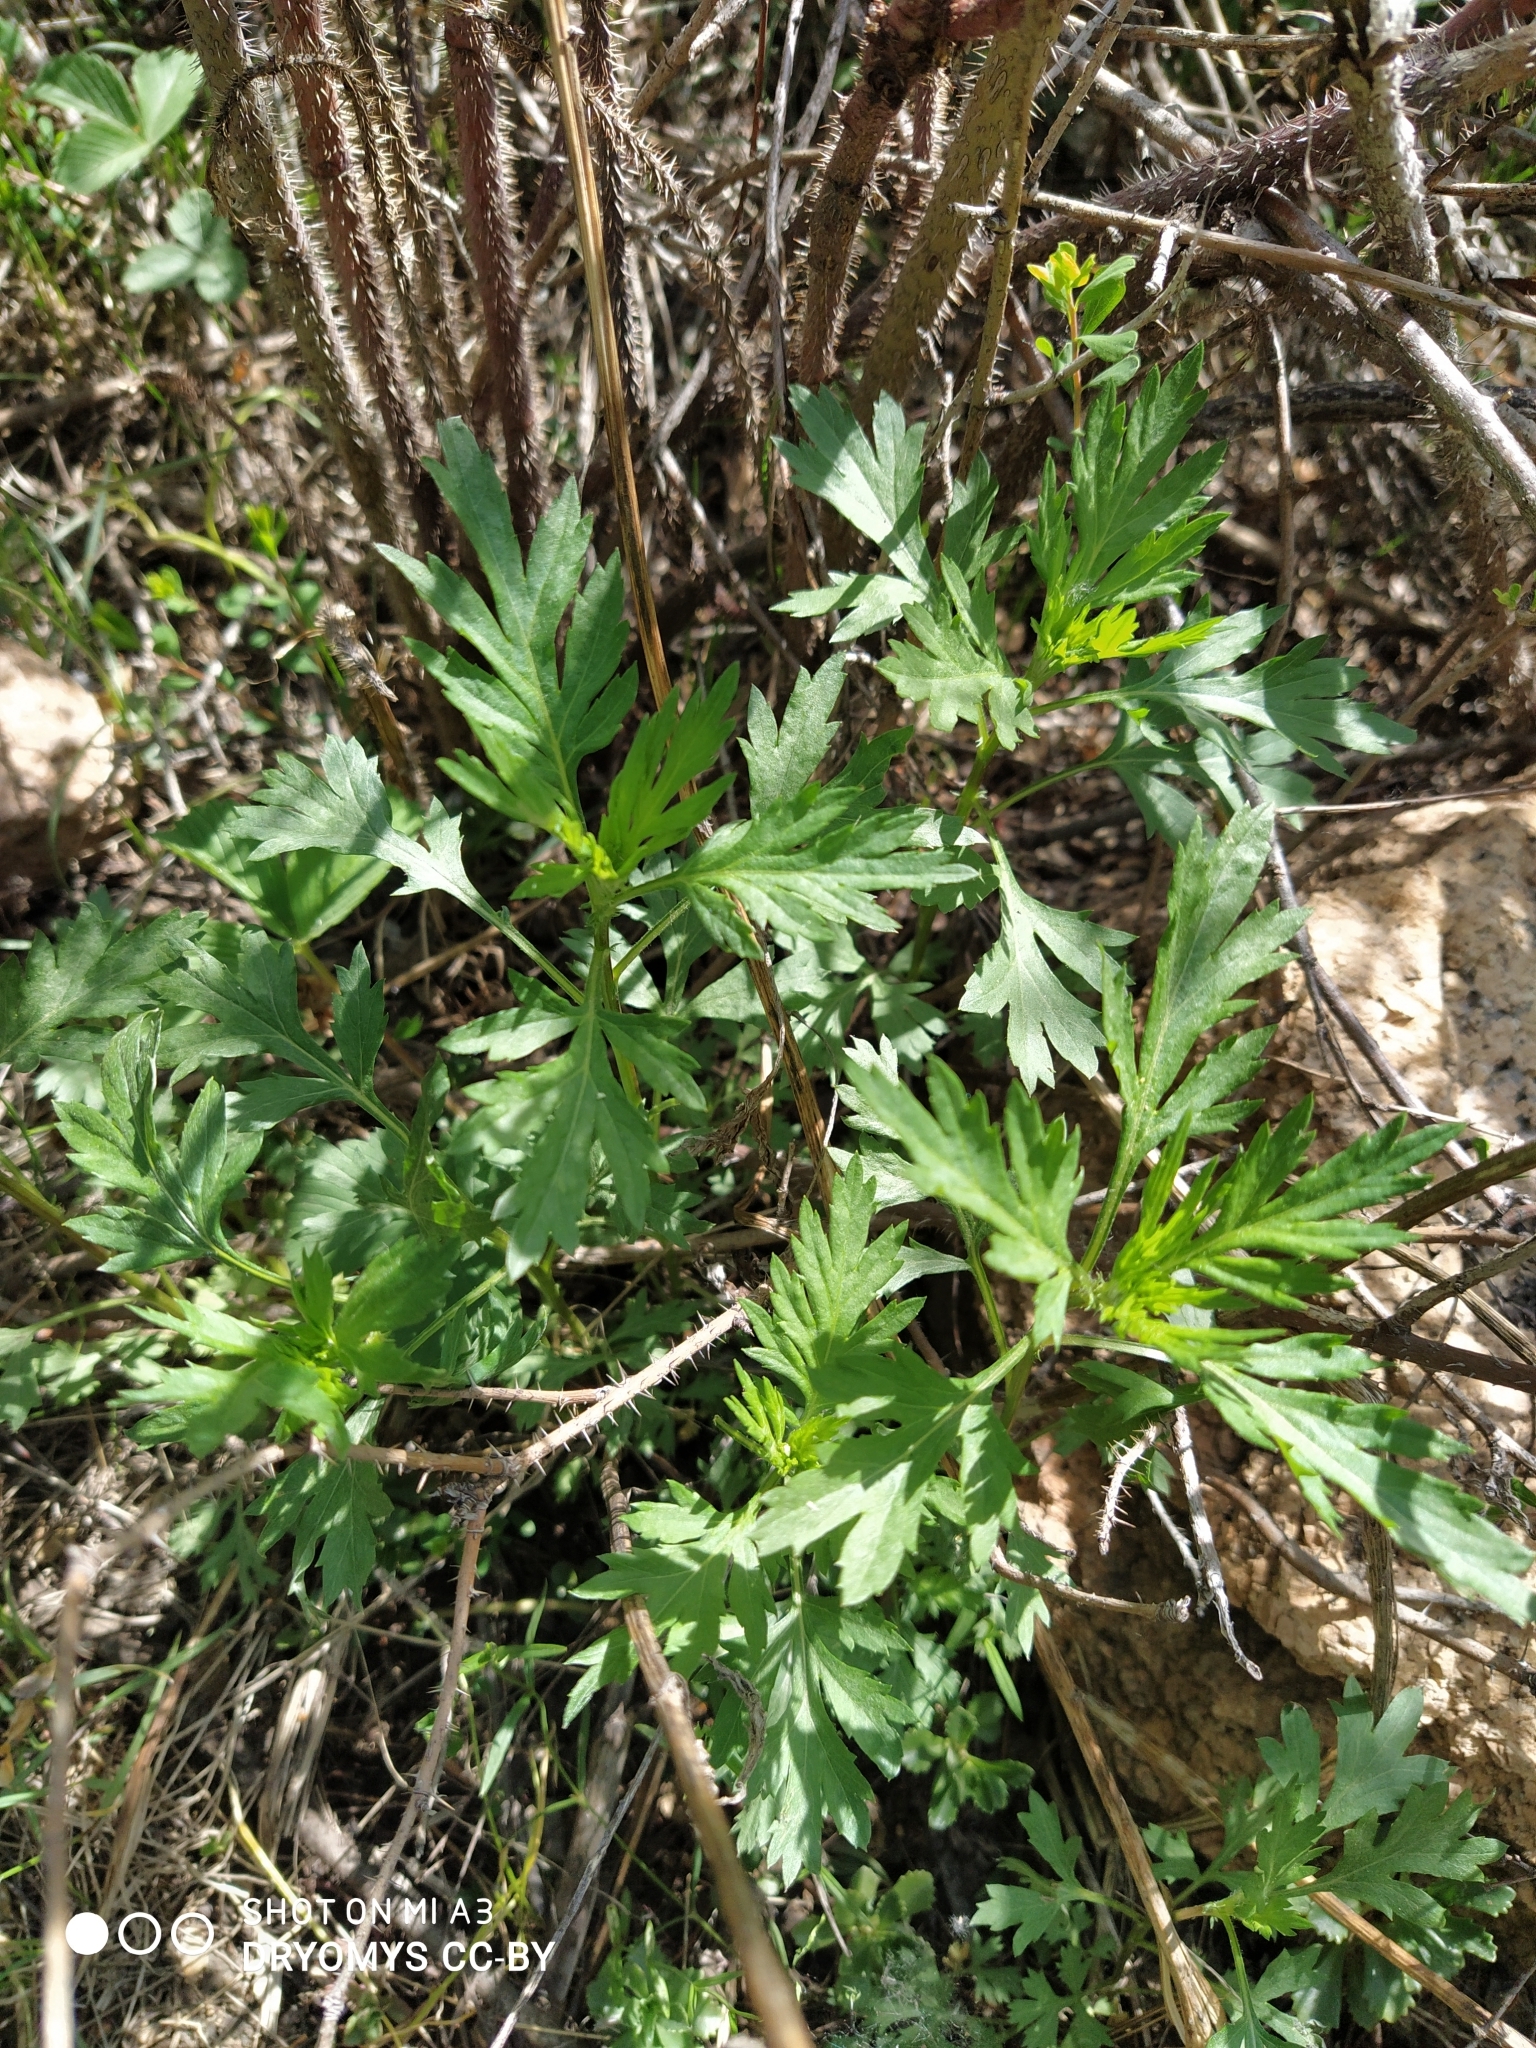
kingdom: Plantae
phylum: Tracheophyta
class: Magnoliopsida
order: Asterales
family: Asteraceae
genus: Artemisia
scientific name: Artemisia vulgaris
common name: Mugwort
